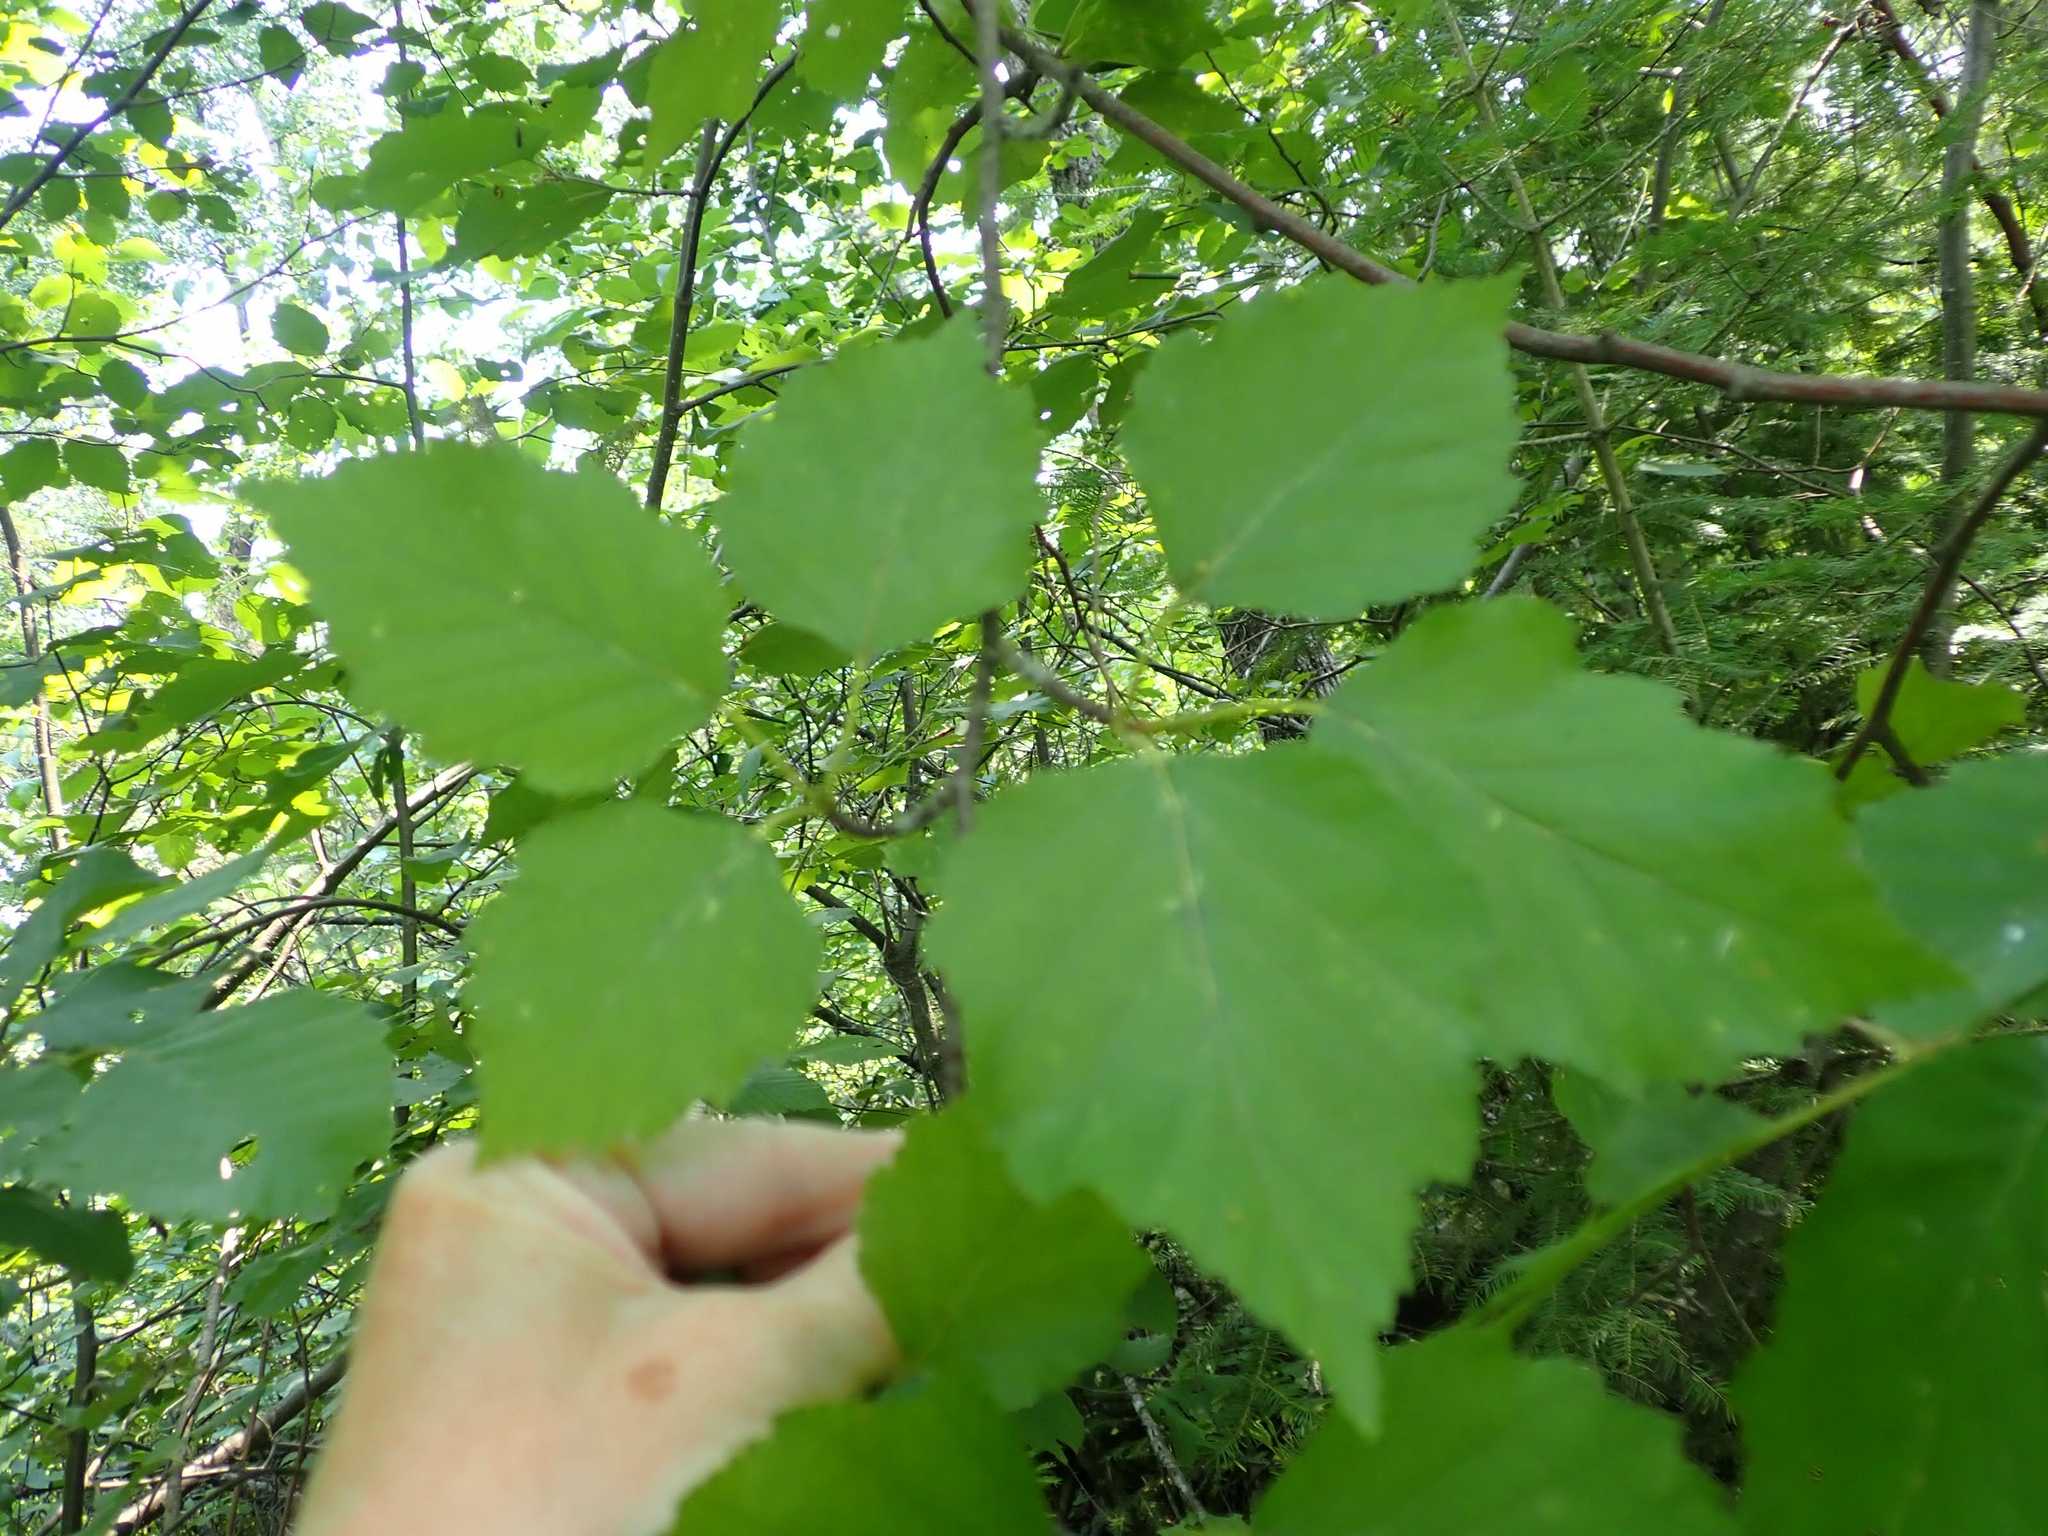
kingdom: Plantae
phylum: Tracheophyta
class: Magnoliopsida
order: Fagales
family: Betulaceae
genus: Betula
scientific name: Betula papyrifera
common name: Paper birch
